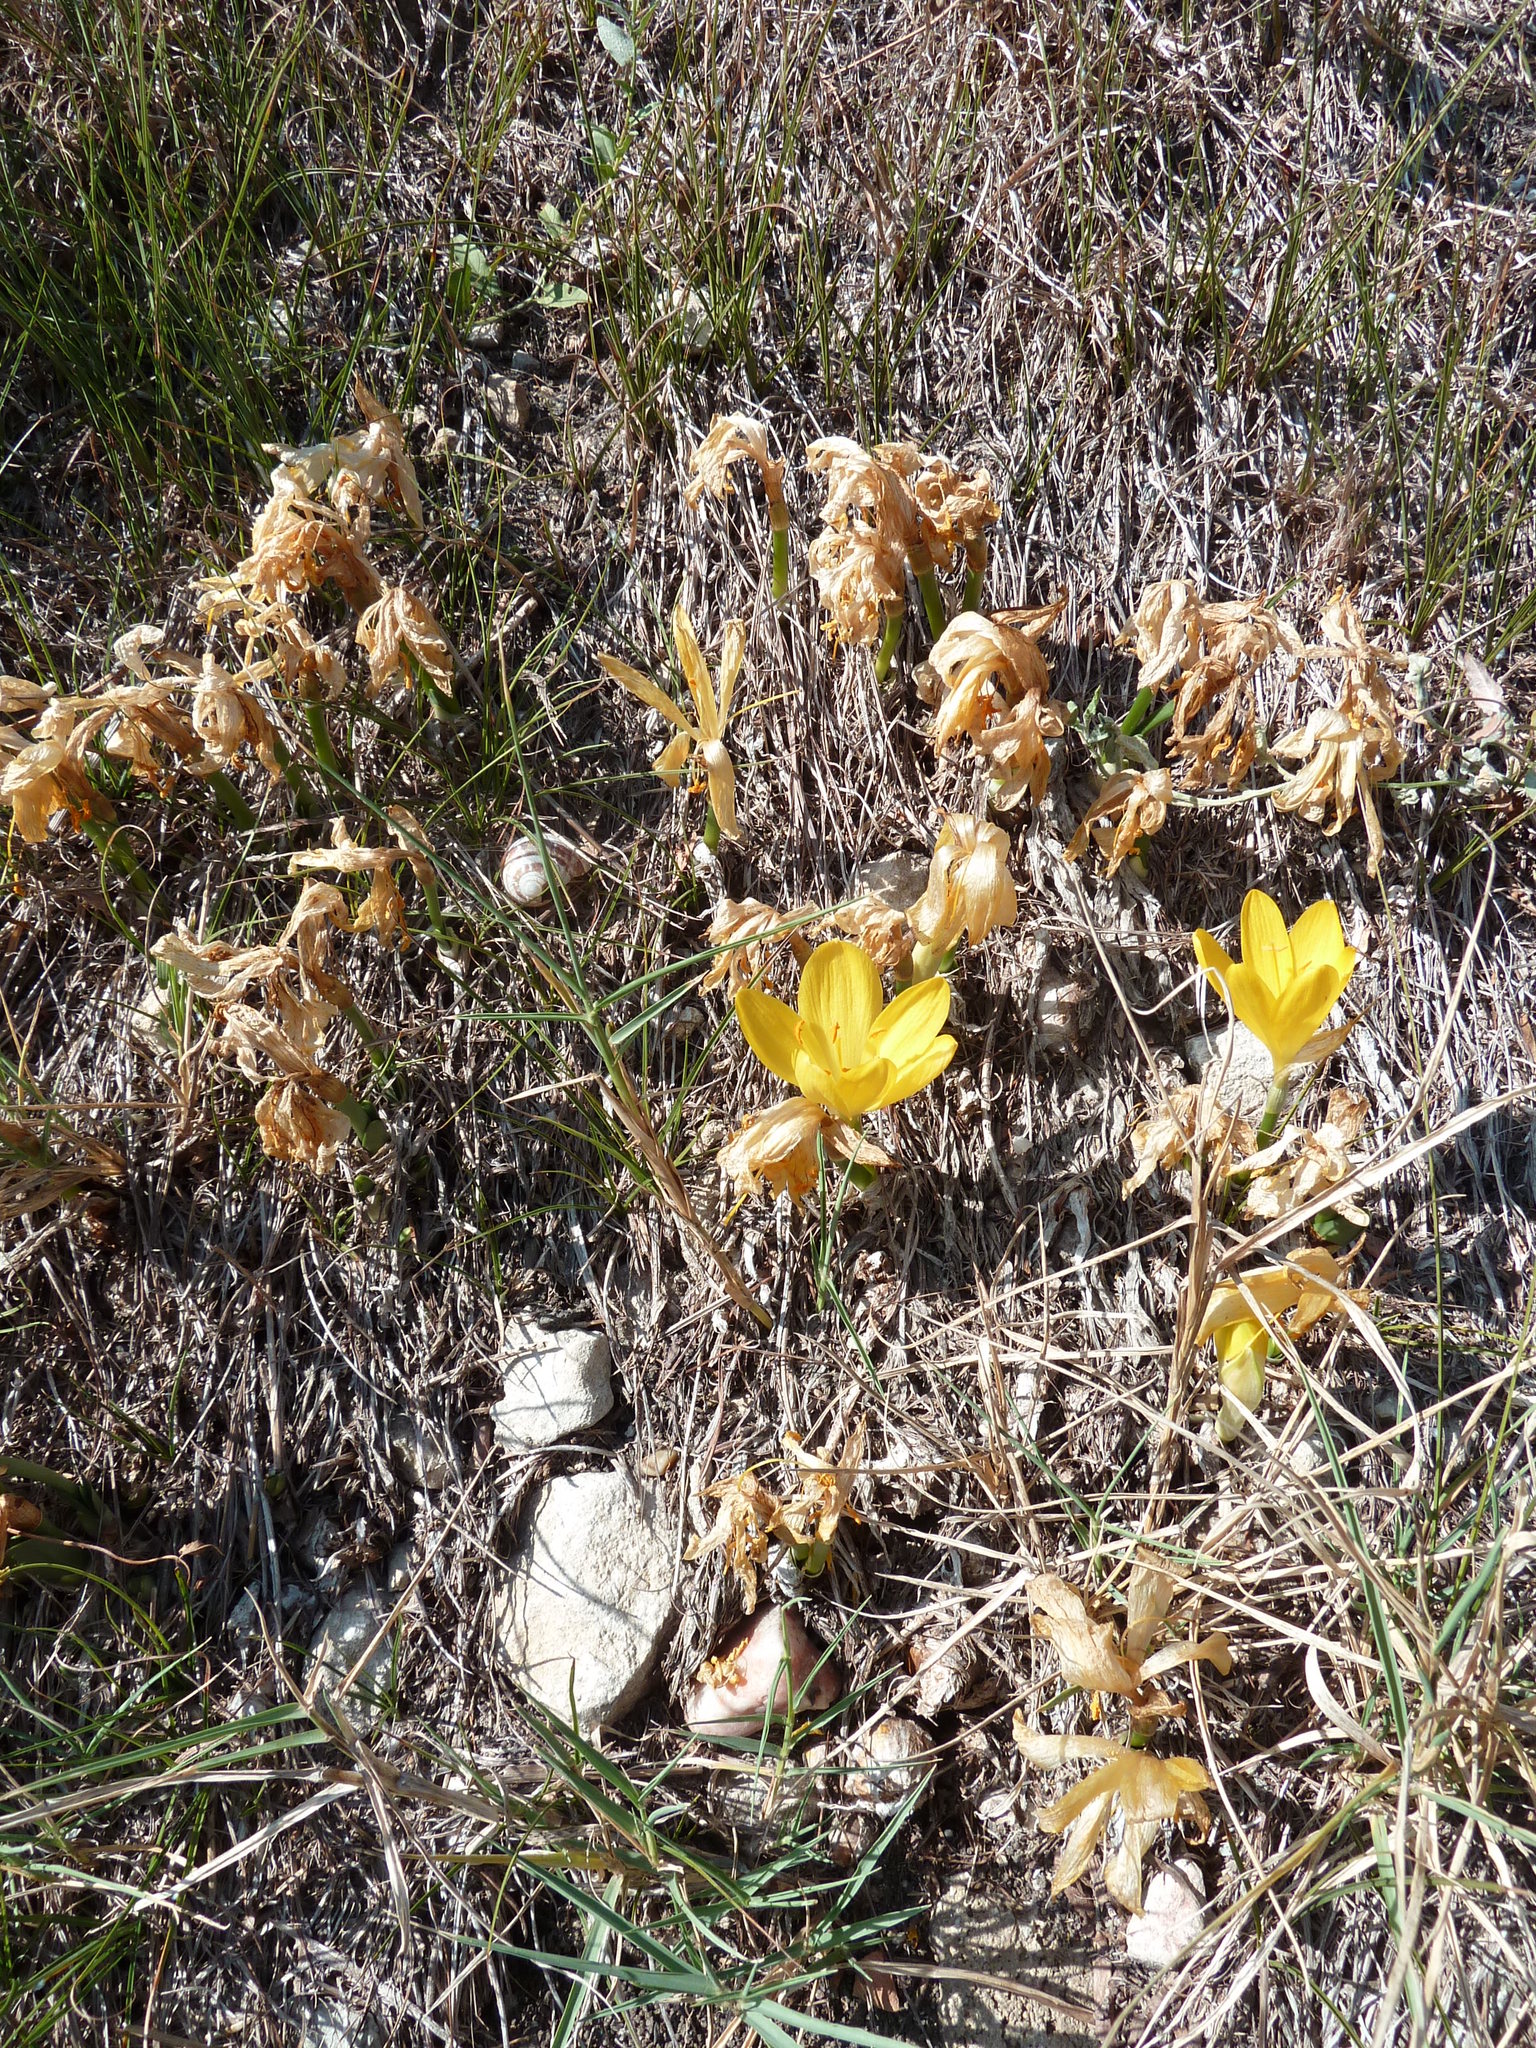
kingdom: Plantae
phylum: Tracheophyta
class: Liliopsida
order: Asparagales
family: Amaryllidaceae
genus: Sternbergia
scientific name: Sternbergia lutea
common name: Winter daffodil
